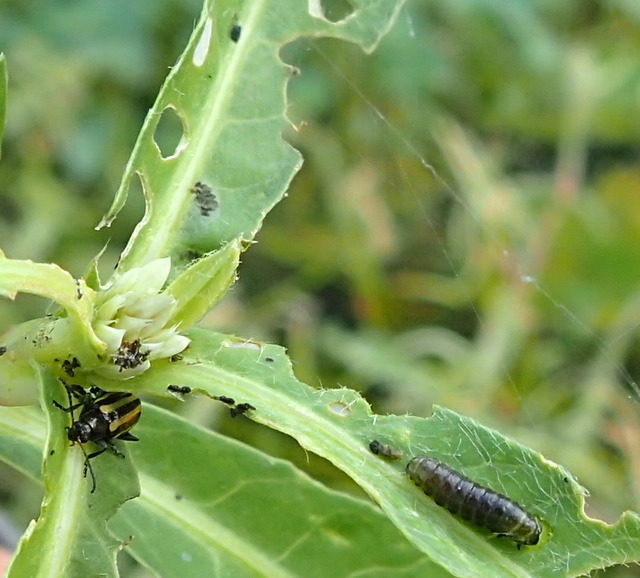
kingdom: Animalia
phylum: Arthropoda
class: Insecta
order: Coleoptera
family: Chrysomelidae
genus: Agasicles
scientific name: Agasicles hygrophila
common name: Alligatorweed flea beetle
